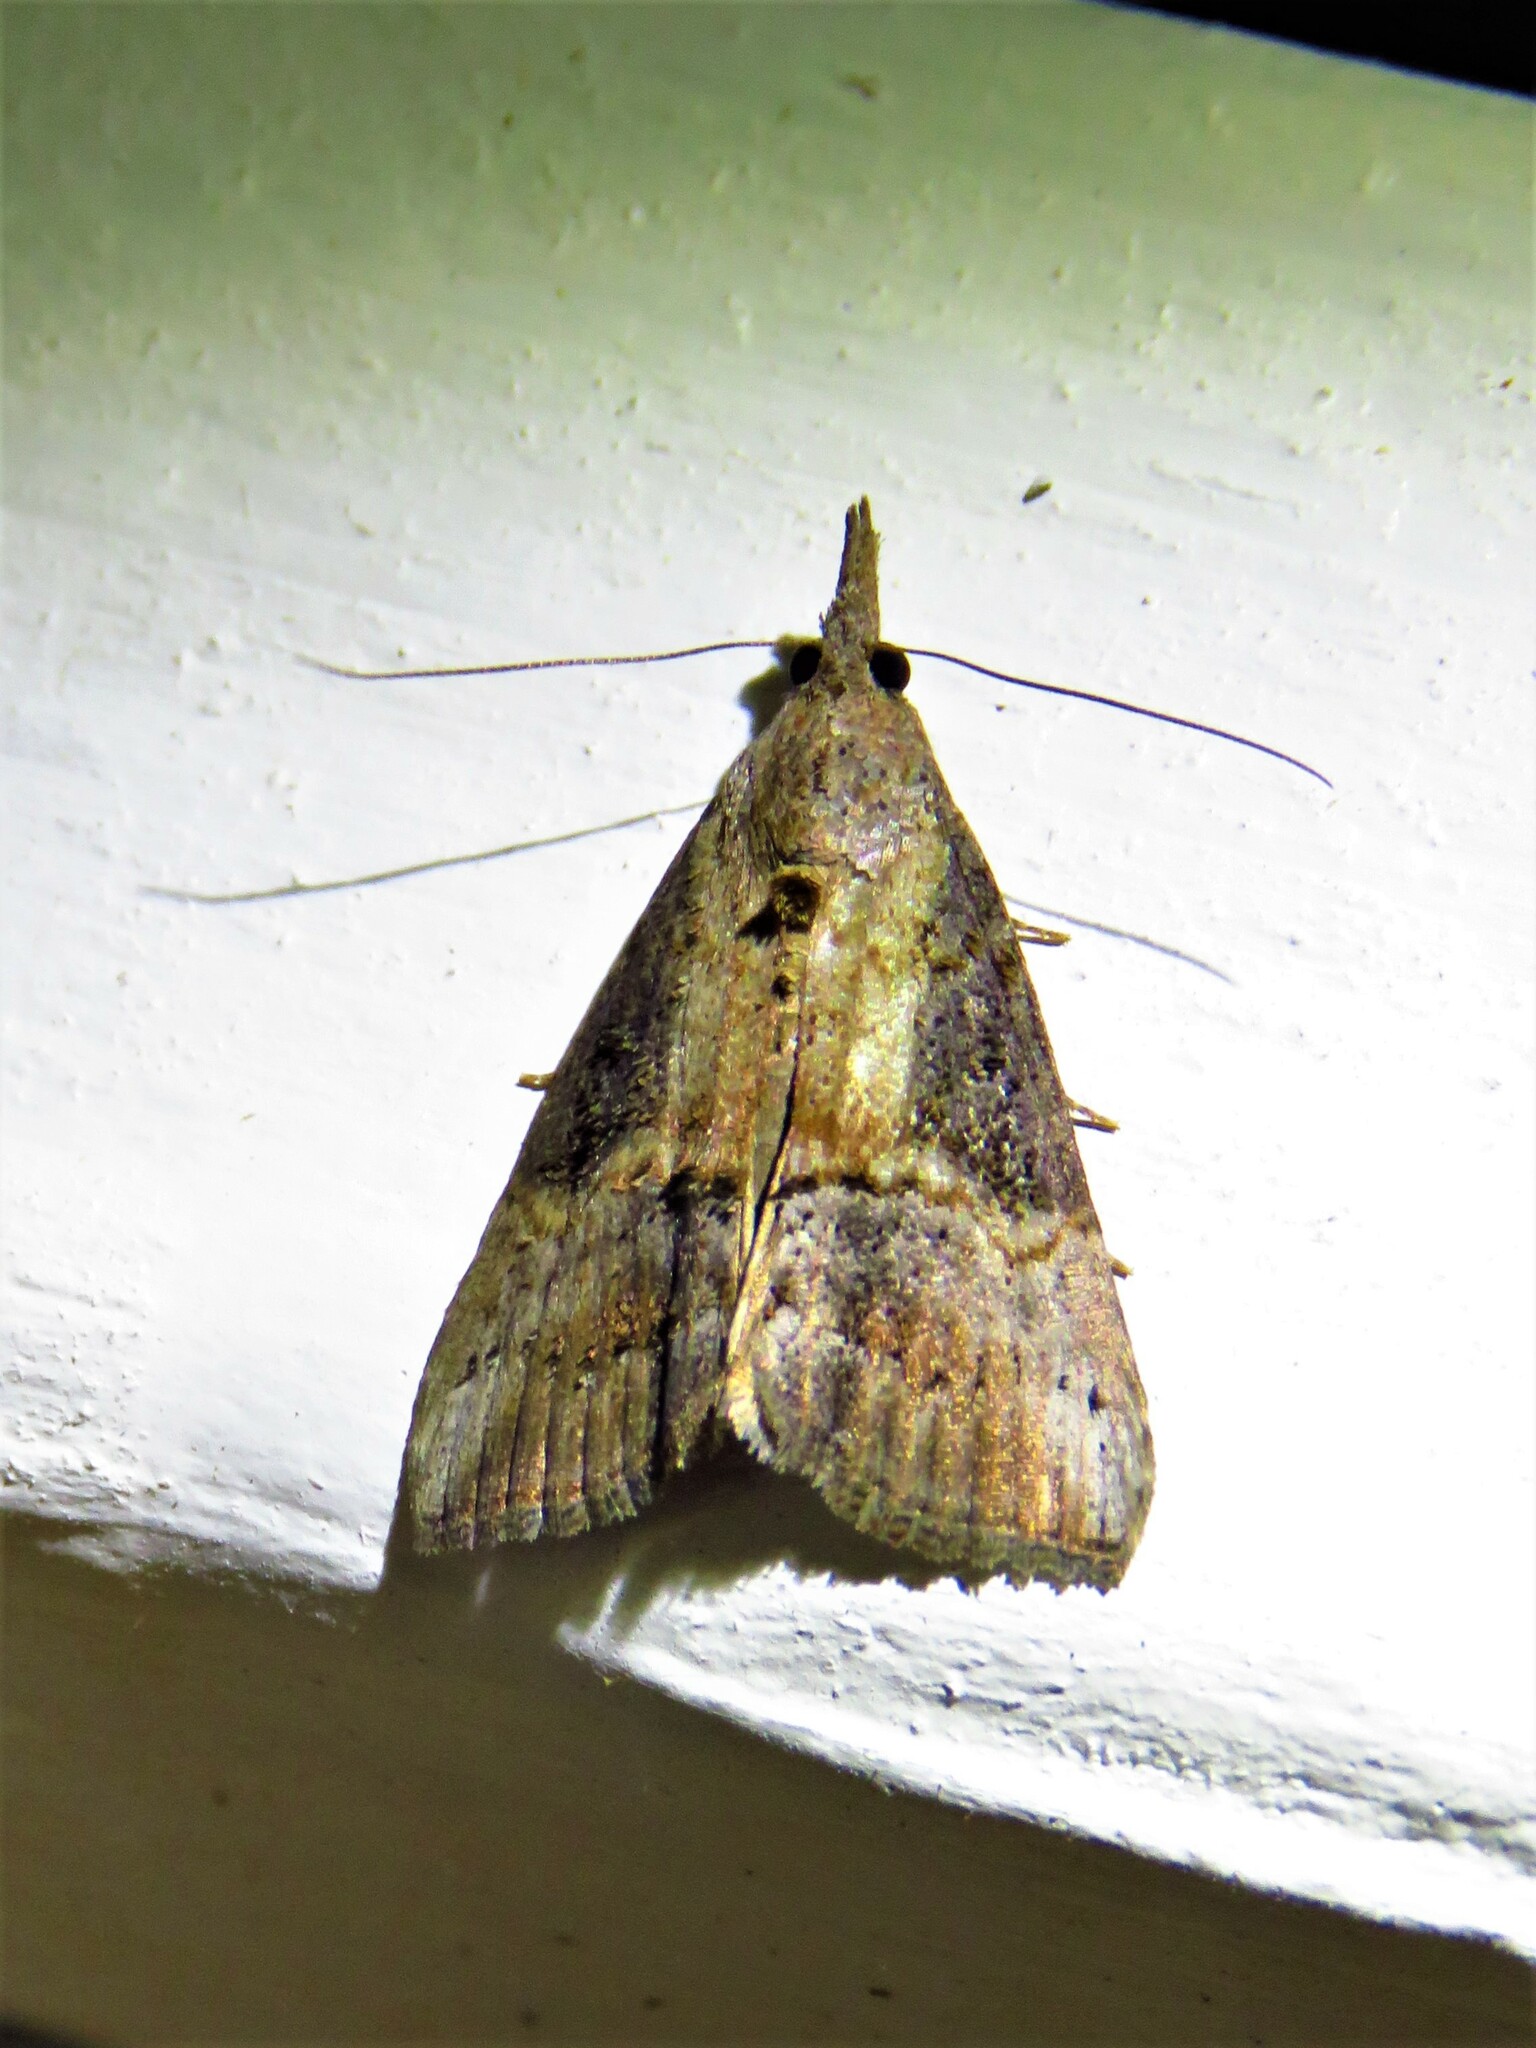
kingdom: Animalia
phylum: Arthropoda
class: Insecta
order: Lepidoptera
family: Erebidae
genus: Hypena
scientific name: Hypena scabra
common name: Green cloverworm
